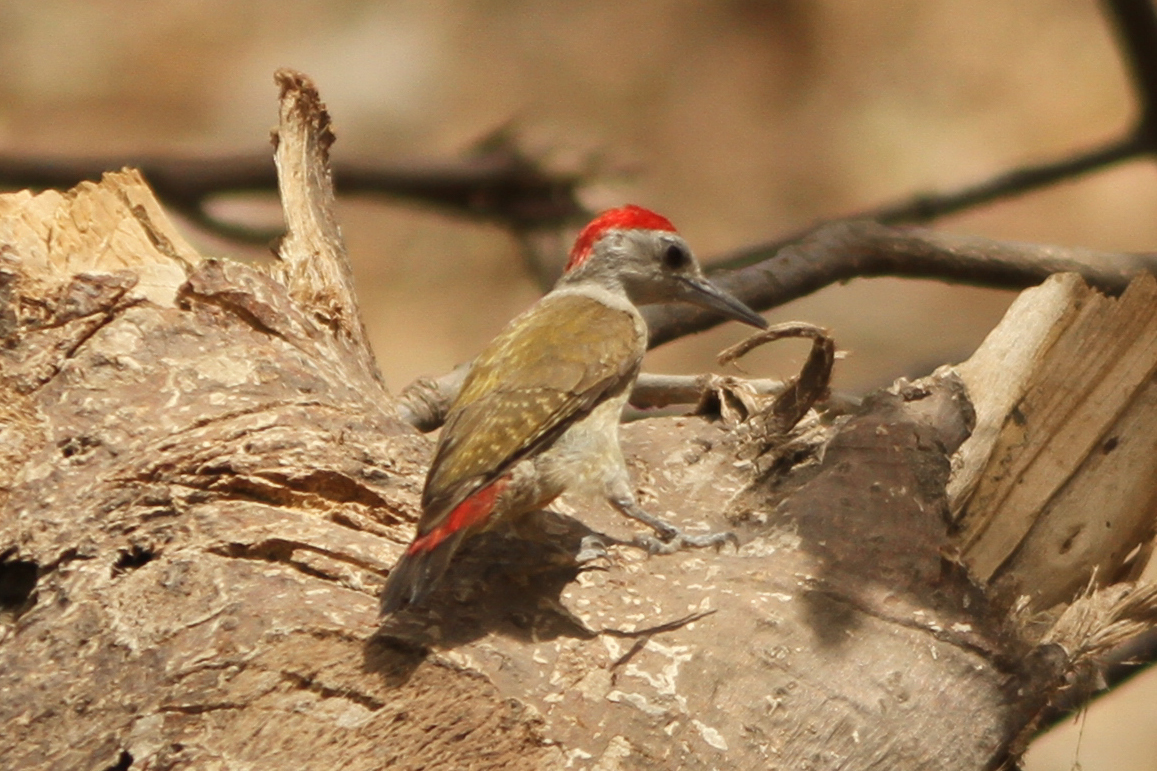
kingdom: Animalia
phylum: Chordata
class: Aves
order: Piciformes
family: Picidae
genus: Dendropicos
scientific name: Dendropicos goertae
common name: African grey woodpecker
